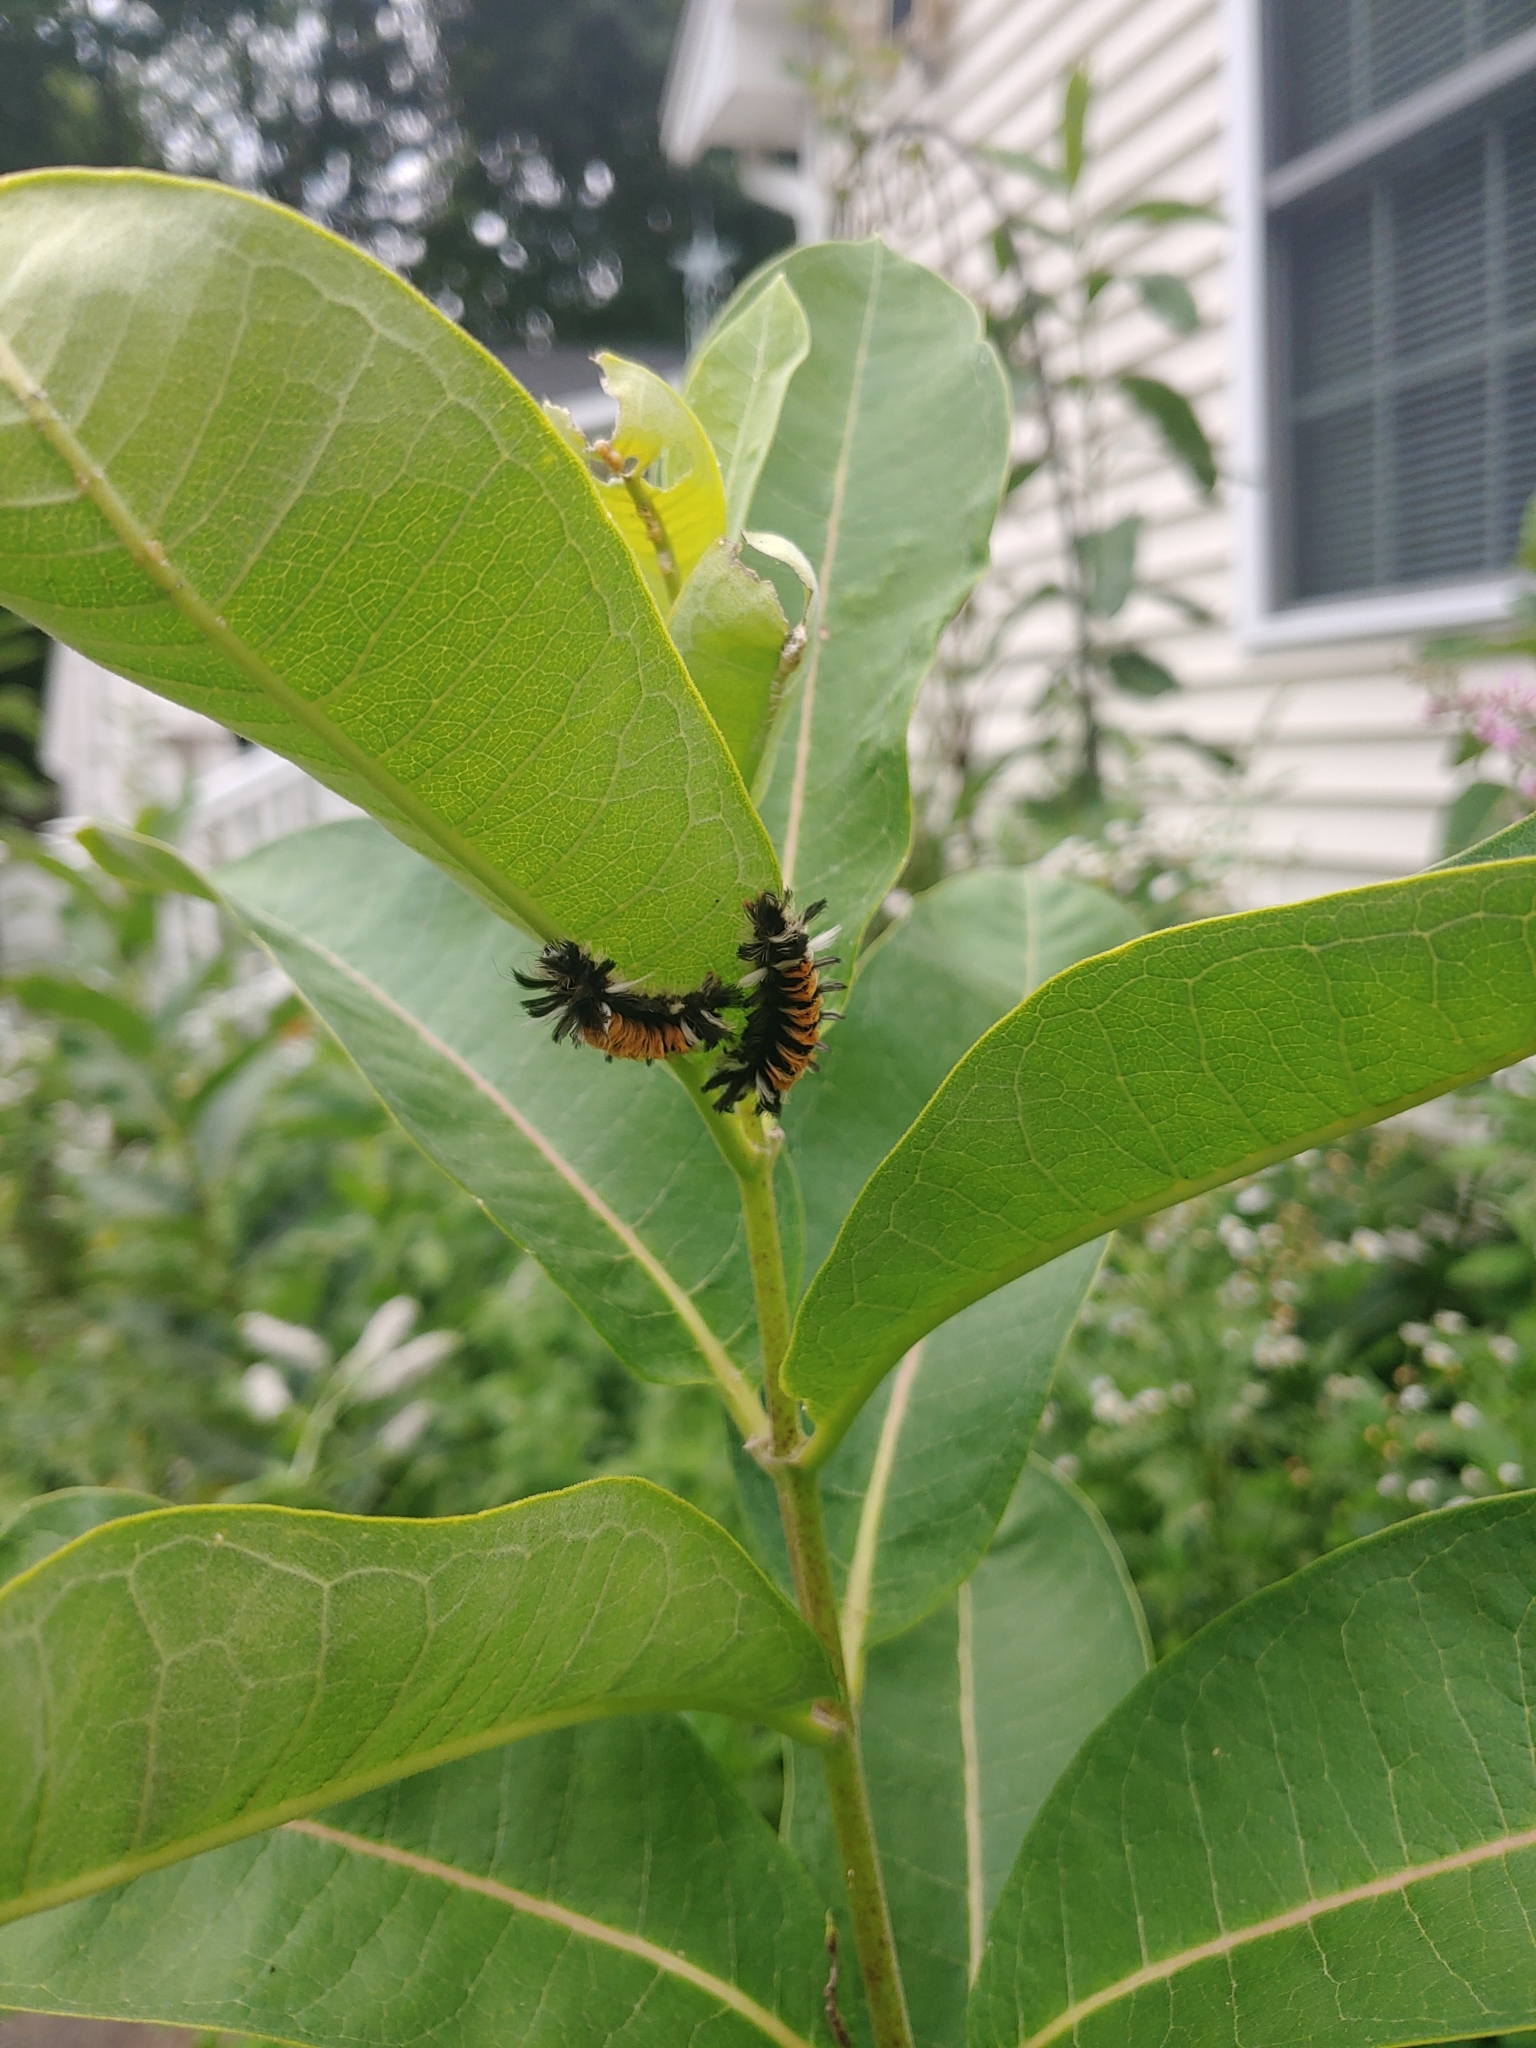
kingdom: Animalia
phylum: Arthropoda
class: Insecta
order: Lepidoptera
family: Erebidae
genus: Euchaetes
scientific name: Euchaetes egle
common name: Milkweed tussock moth
